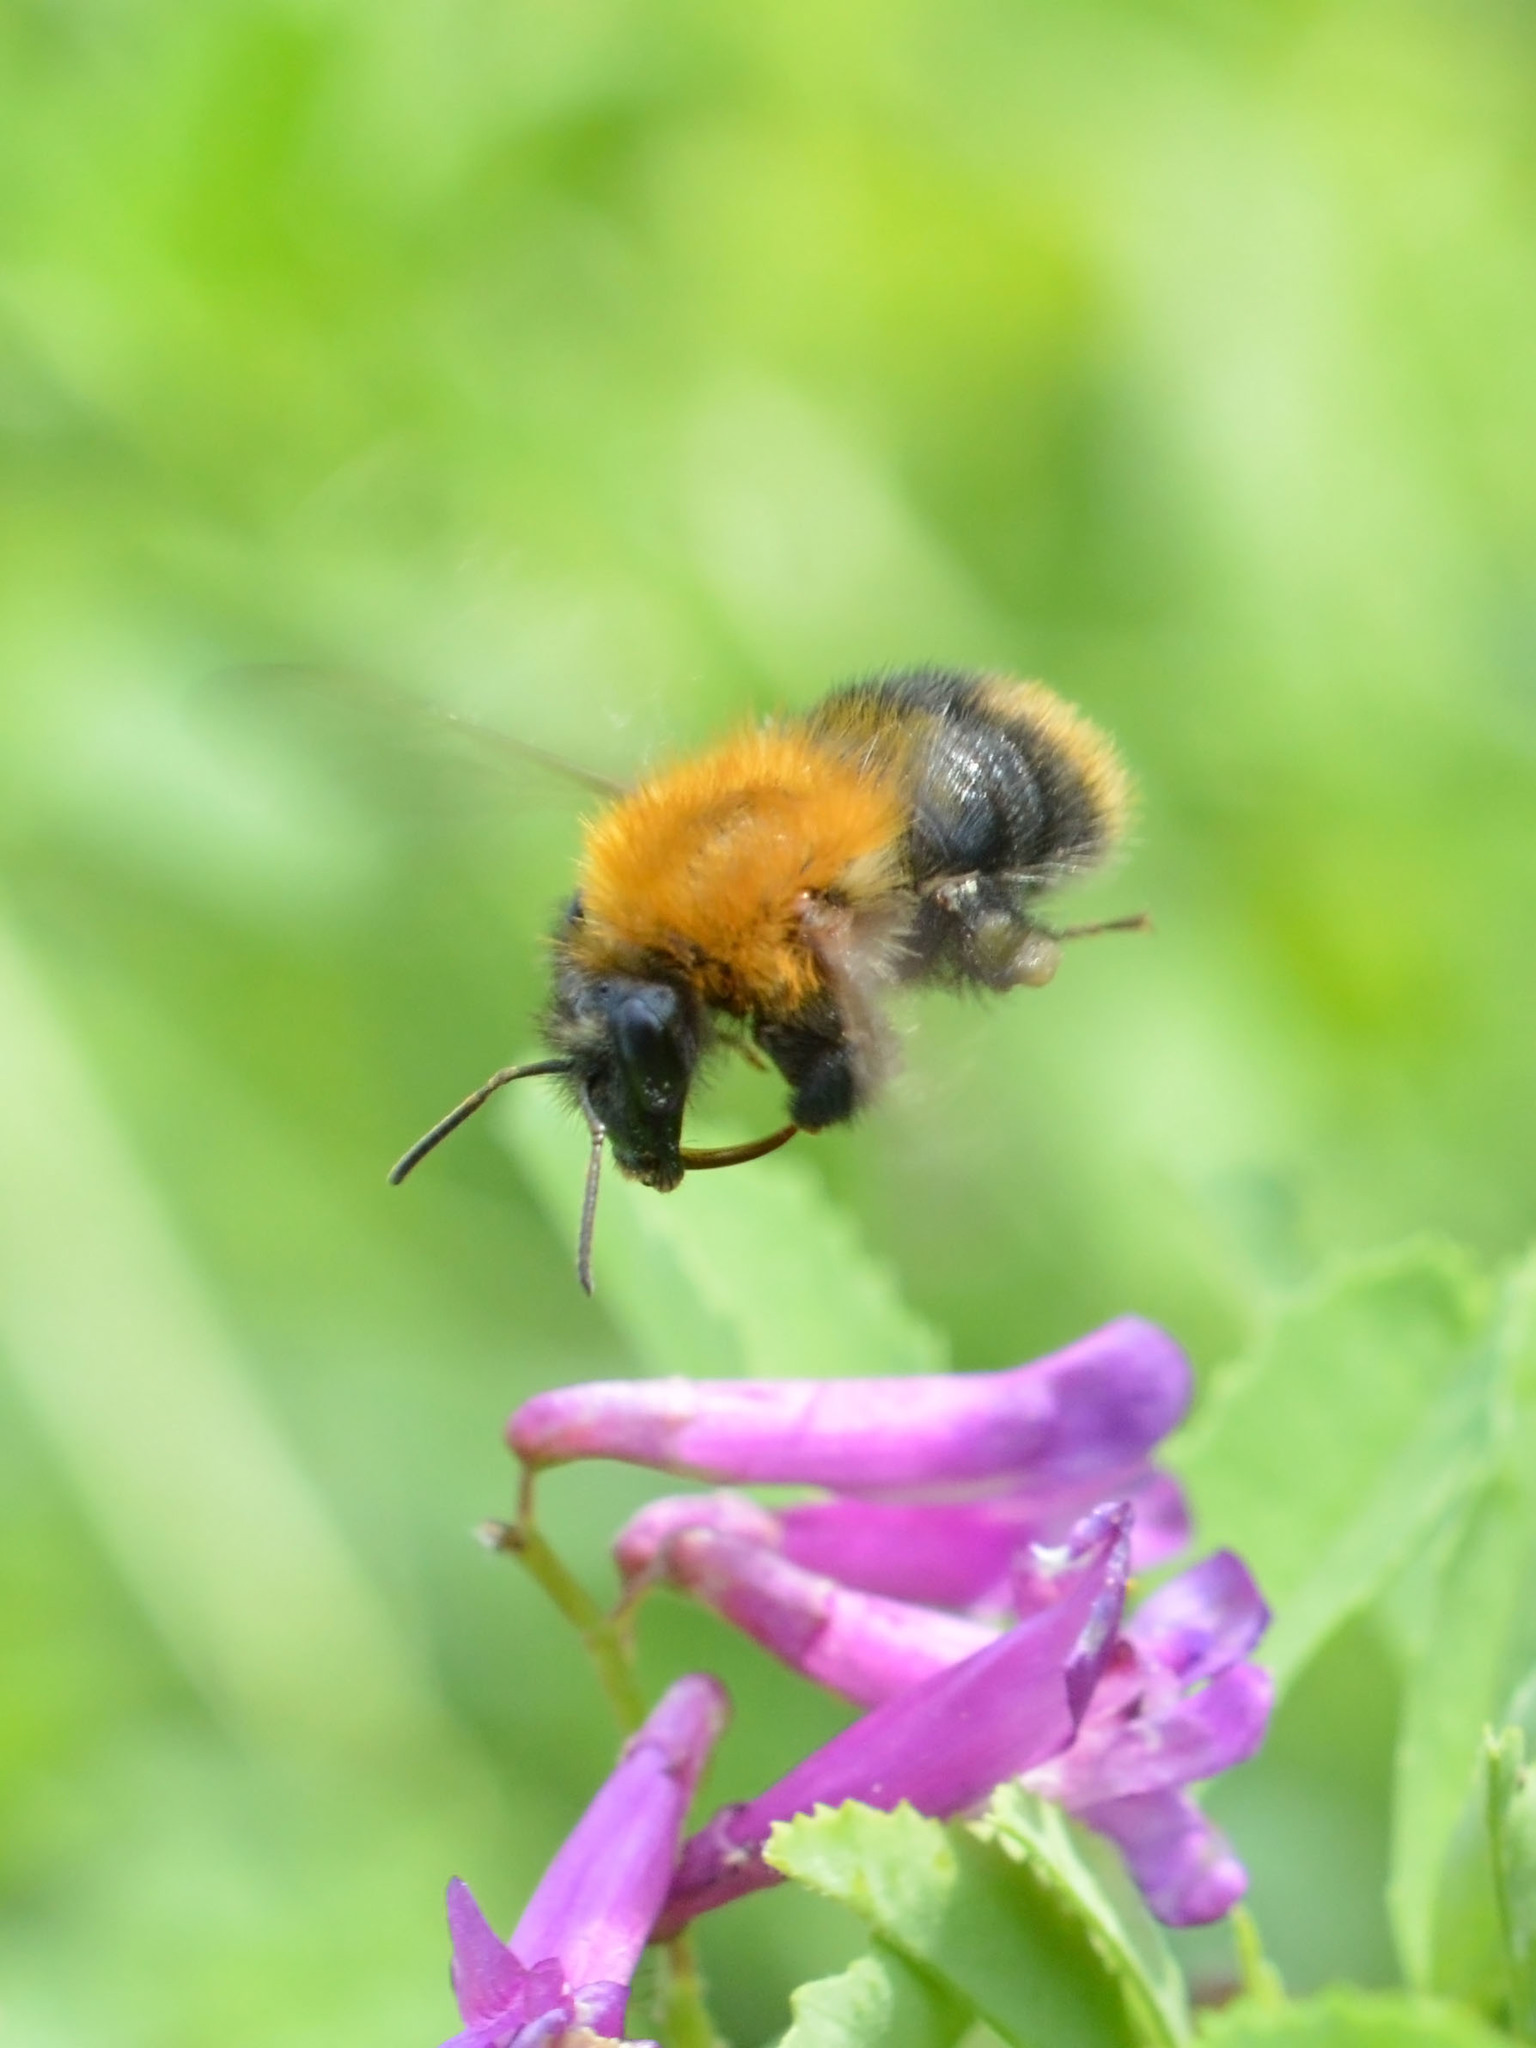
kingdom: Animalia
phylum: Arthropoda
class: Insecta
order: Hymenoptera
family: Apidae
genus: Bombus
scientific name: Bombus pascuorum
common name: Common carder bee
